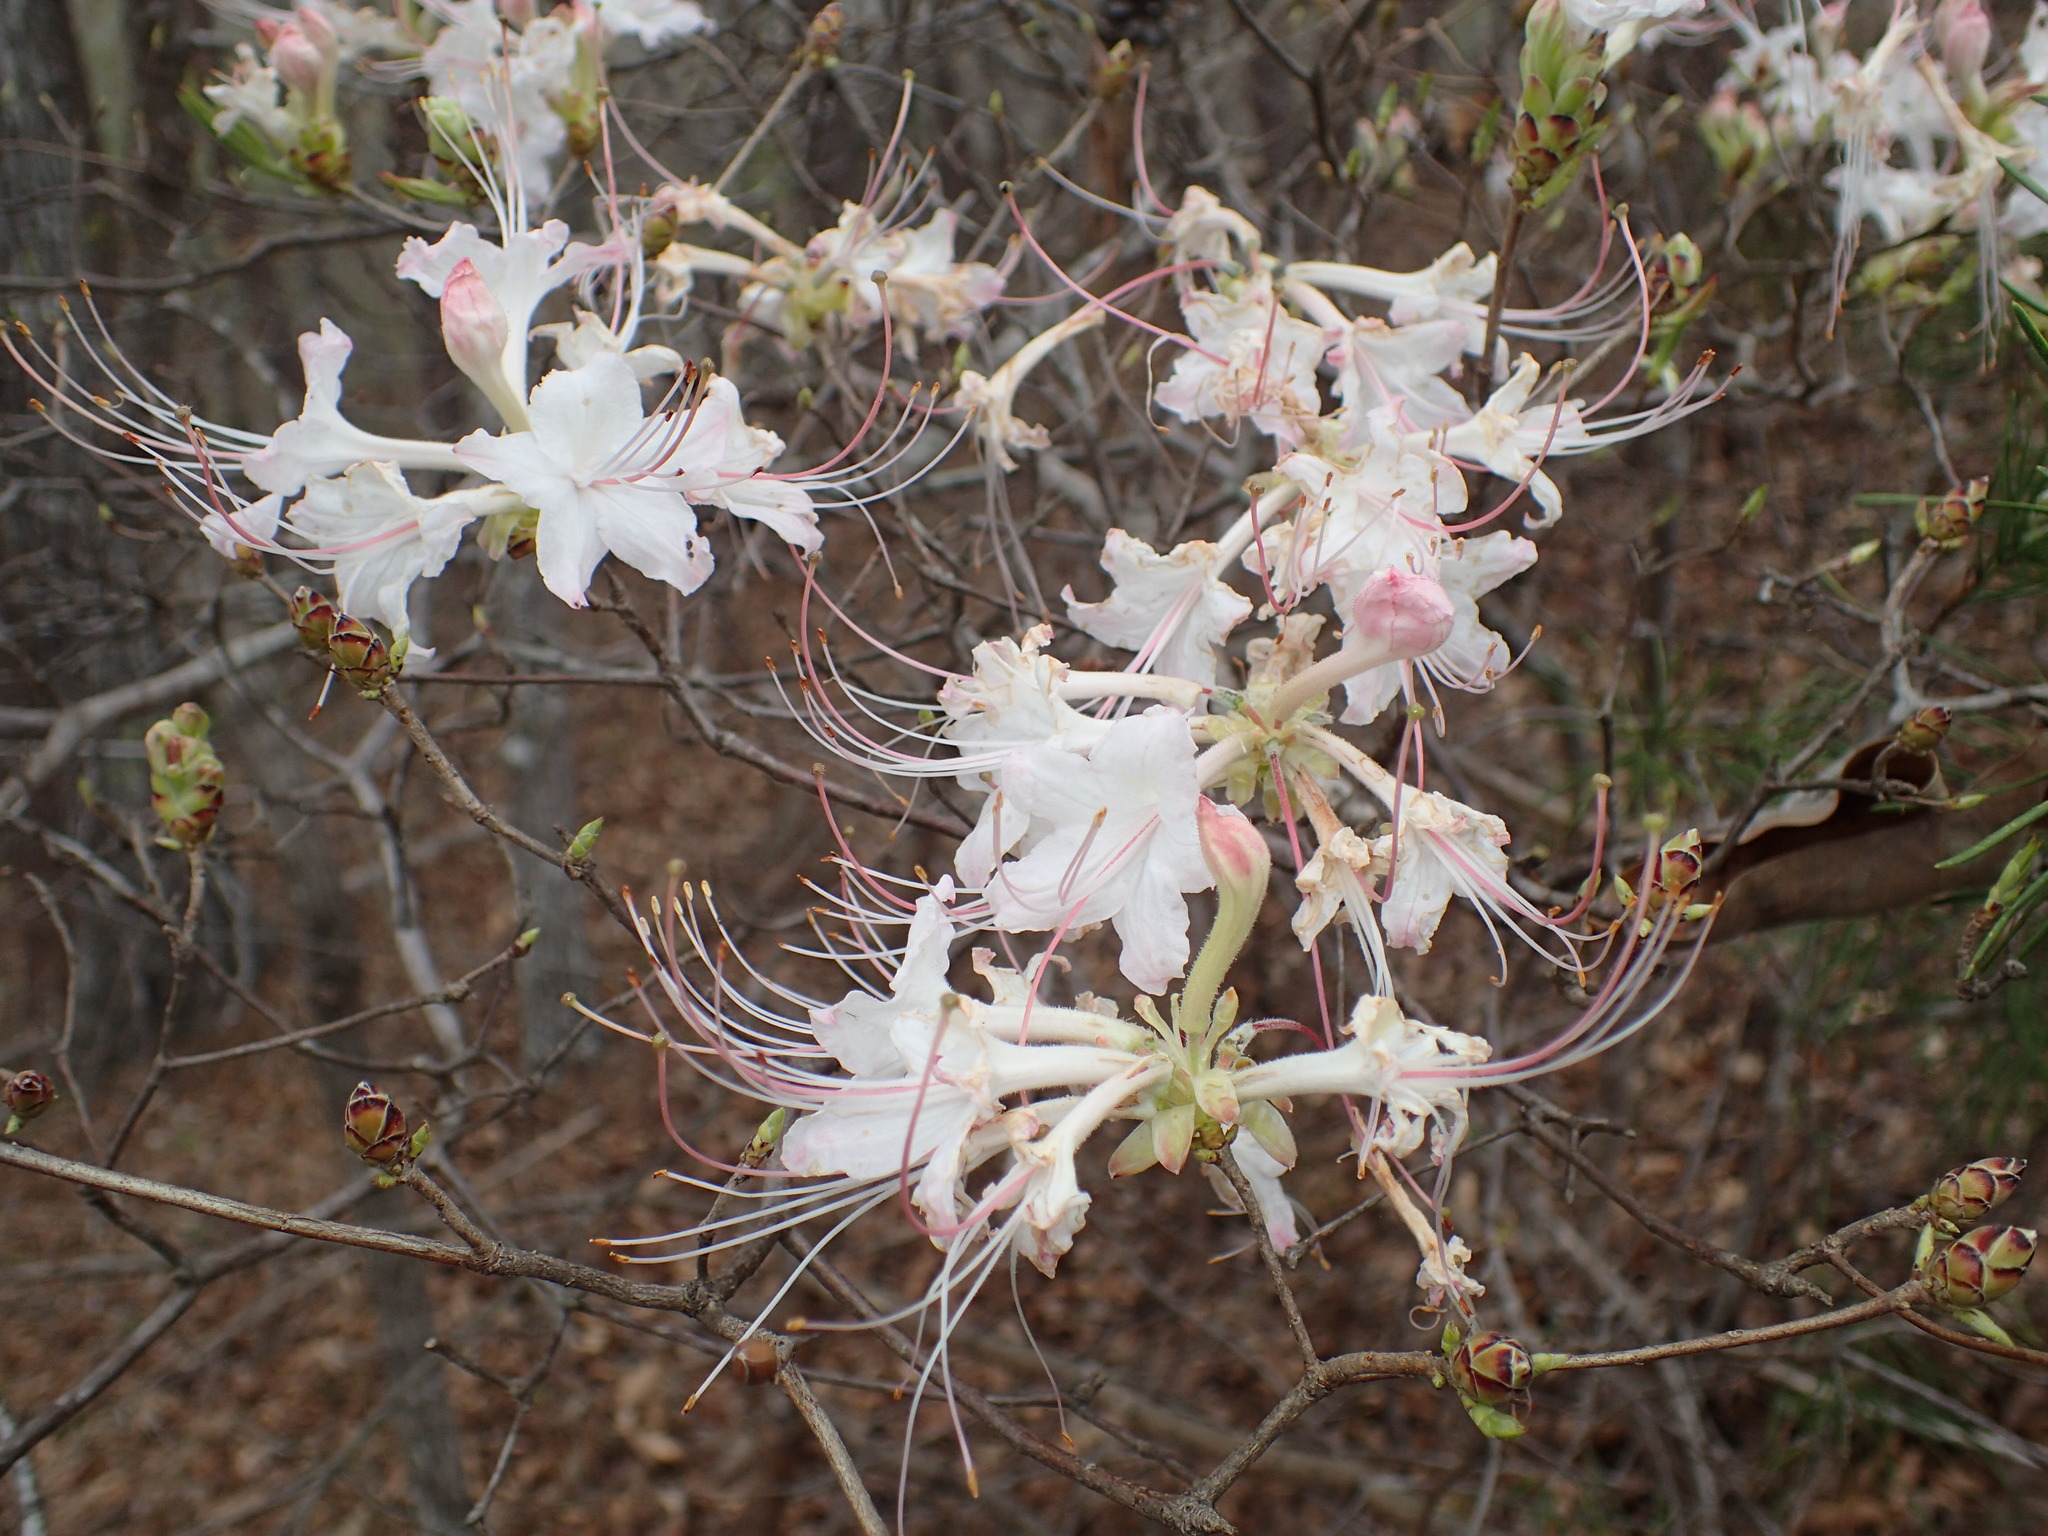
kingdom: Plantae
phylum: Tracheophyta
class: Magnoliopsida
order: Ericales
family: Ericaceae
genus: Rhododendron
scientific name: Rhododendron canescens
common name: Mountain azalea
